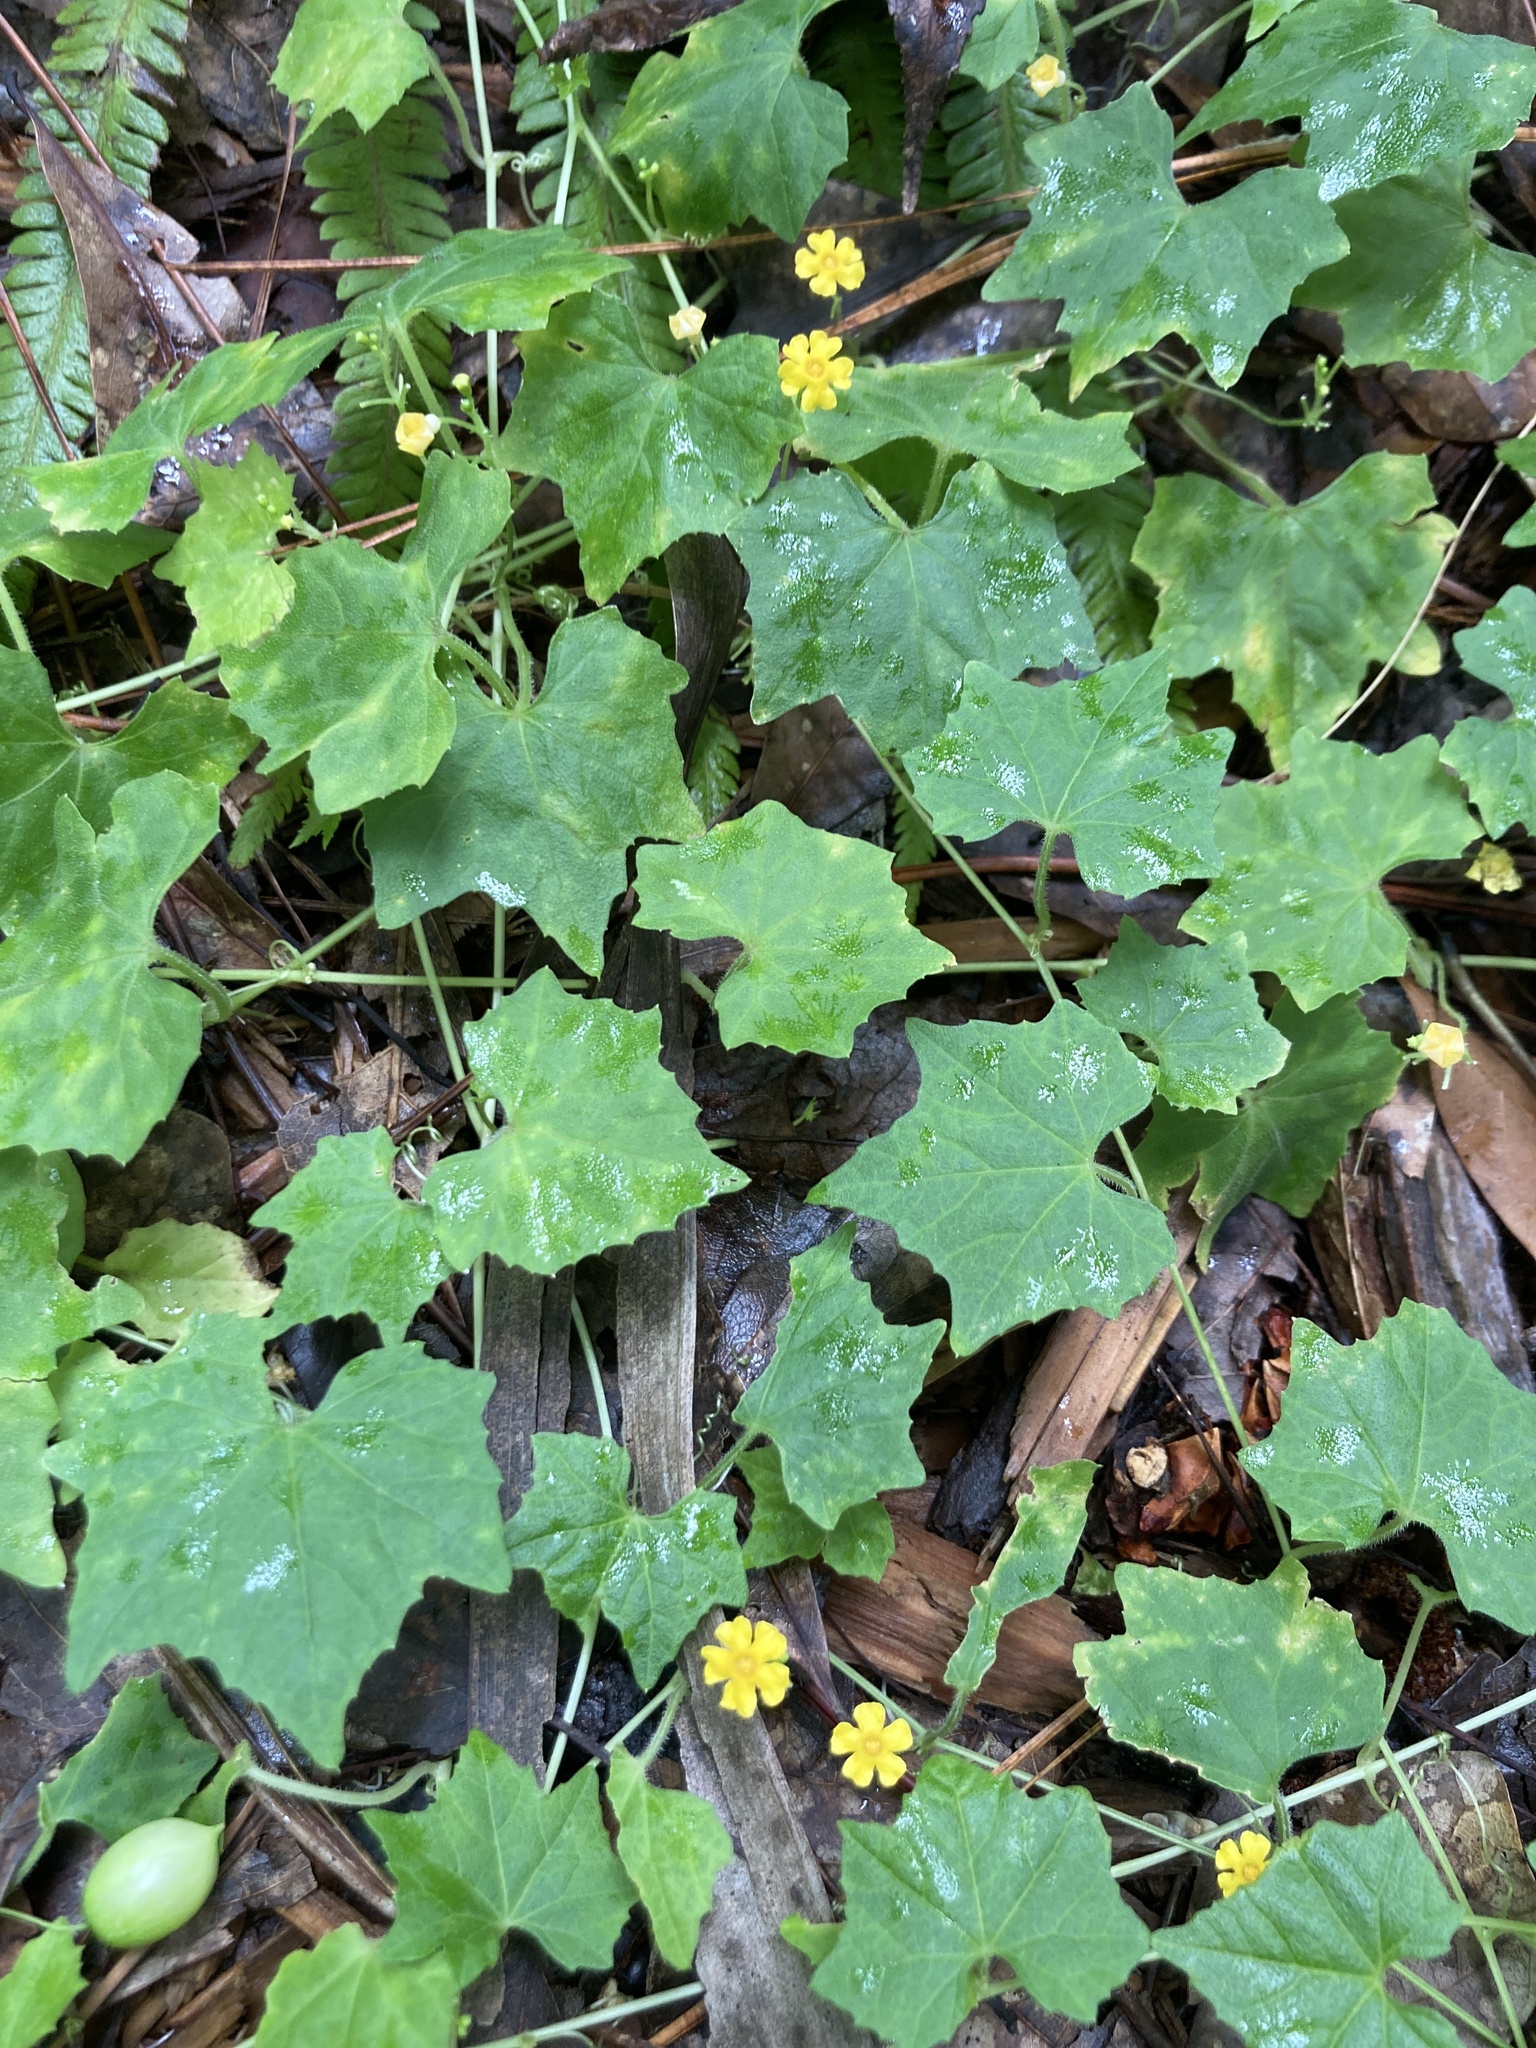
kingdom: Plantae
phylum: Tracheophyta
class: Magnoliopsida
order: Cucurbitales
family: Cucurbitaceae
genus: Melothria
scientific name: Melothria pendula
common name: Creeping-cucumber
